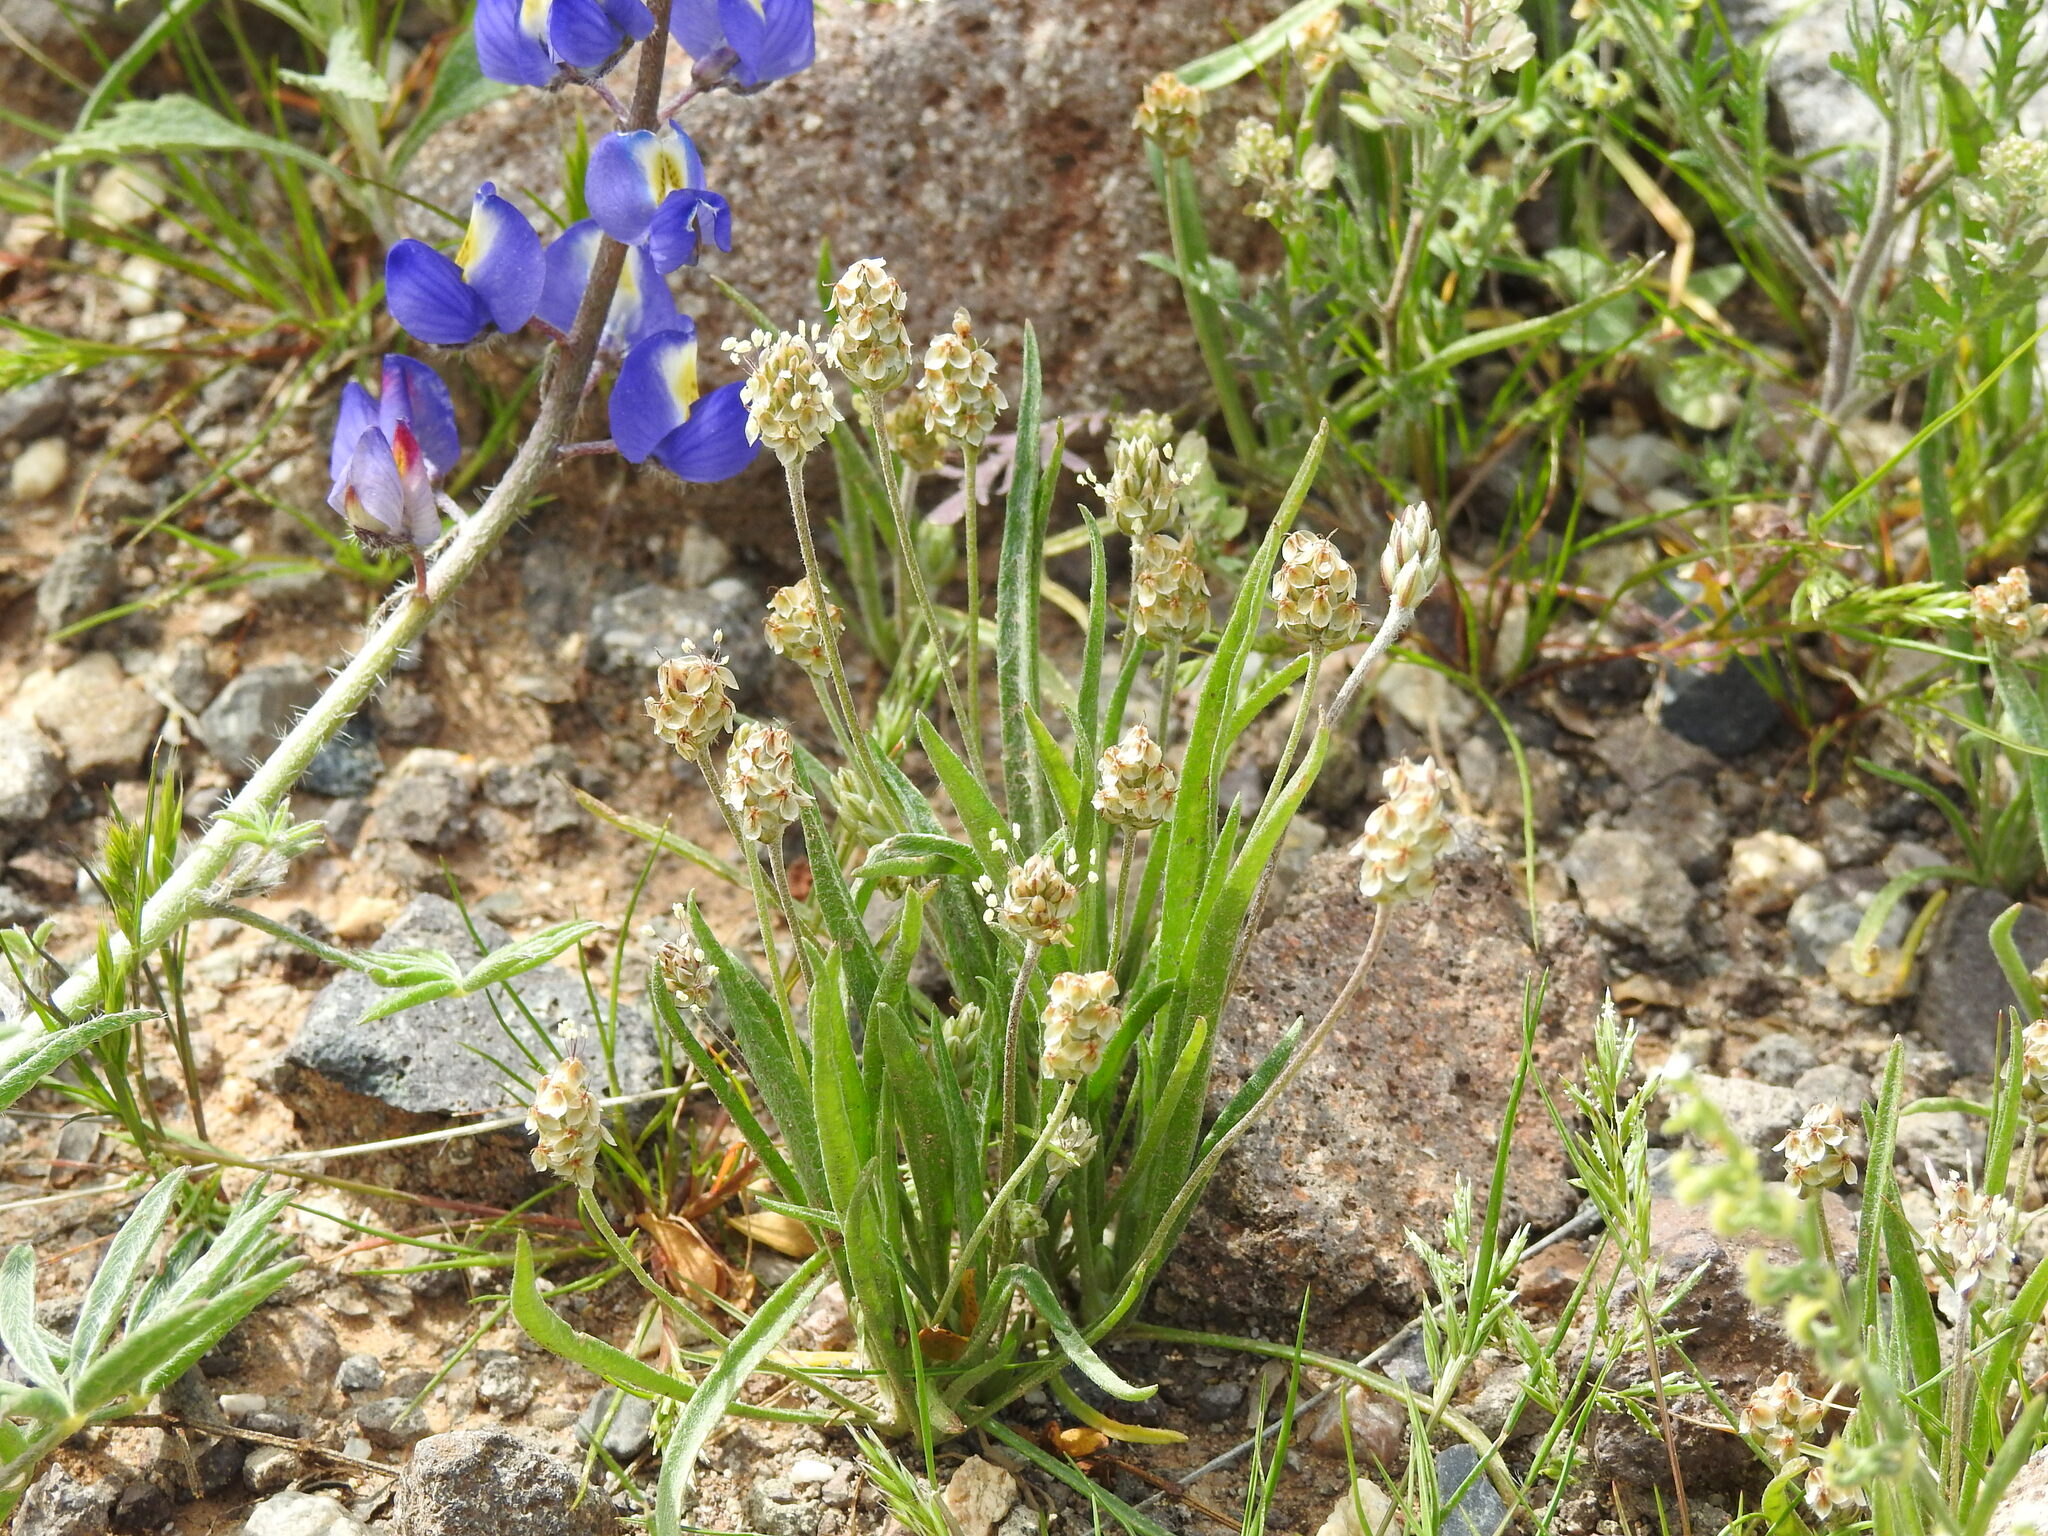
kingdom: Plantae
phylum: Tracheophyta
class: Magnoliopsida
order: Lamiales
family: Plantaginaceae
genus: Plantago
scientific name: Plantago ovata
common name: Blond plantain
